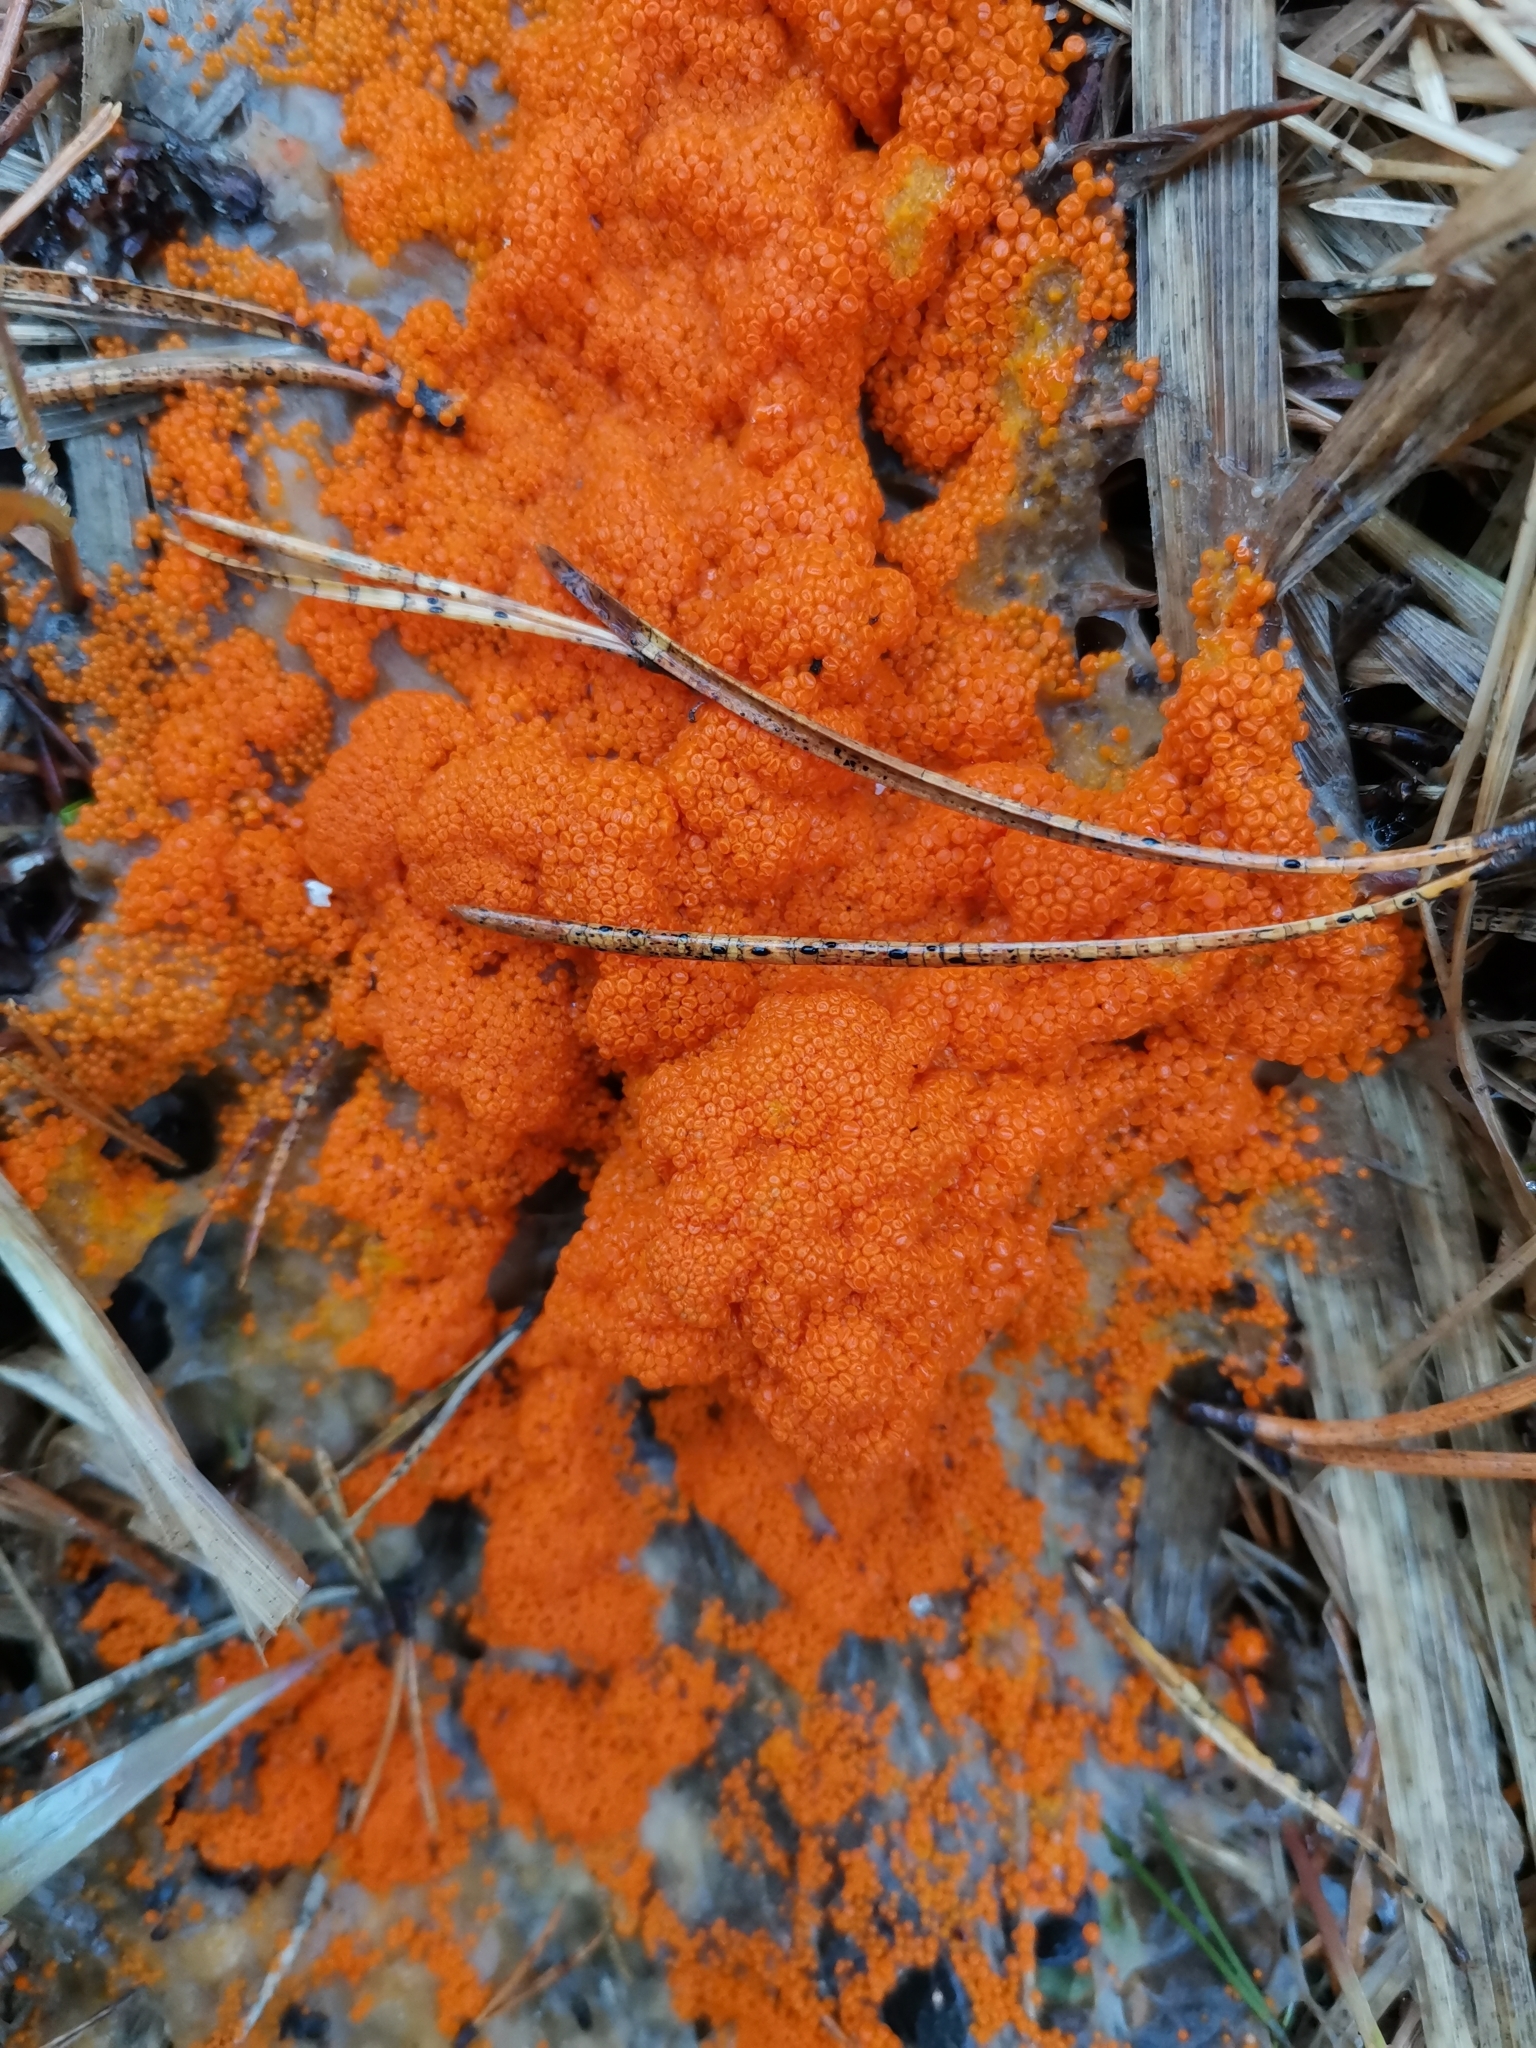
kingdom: Fungi
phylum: Ascomycota
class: Pezizomycetes
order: Pezizales
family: Pyronemataceae
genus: Byssonectria
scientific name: Byssonectria terrestris
